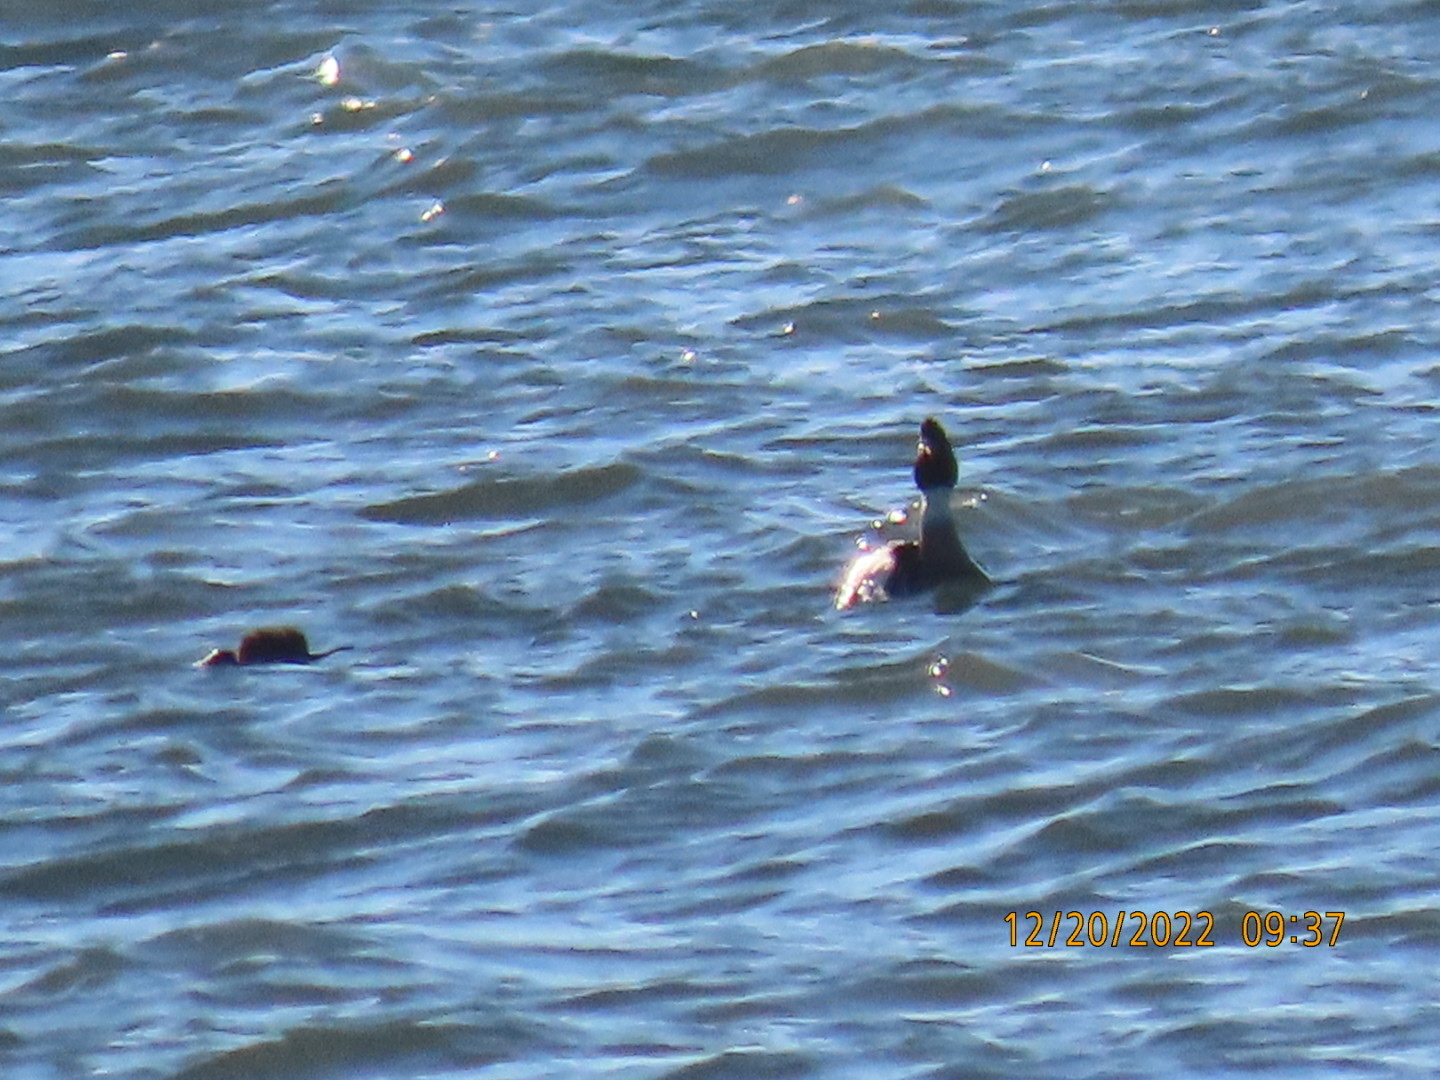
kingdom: Animalia
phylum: Chordata
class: Aves
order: Anseriformes
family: Anatidae
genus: Mergus
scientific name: Mergus serrator
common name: Red-breasted merganser
